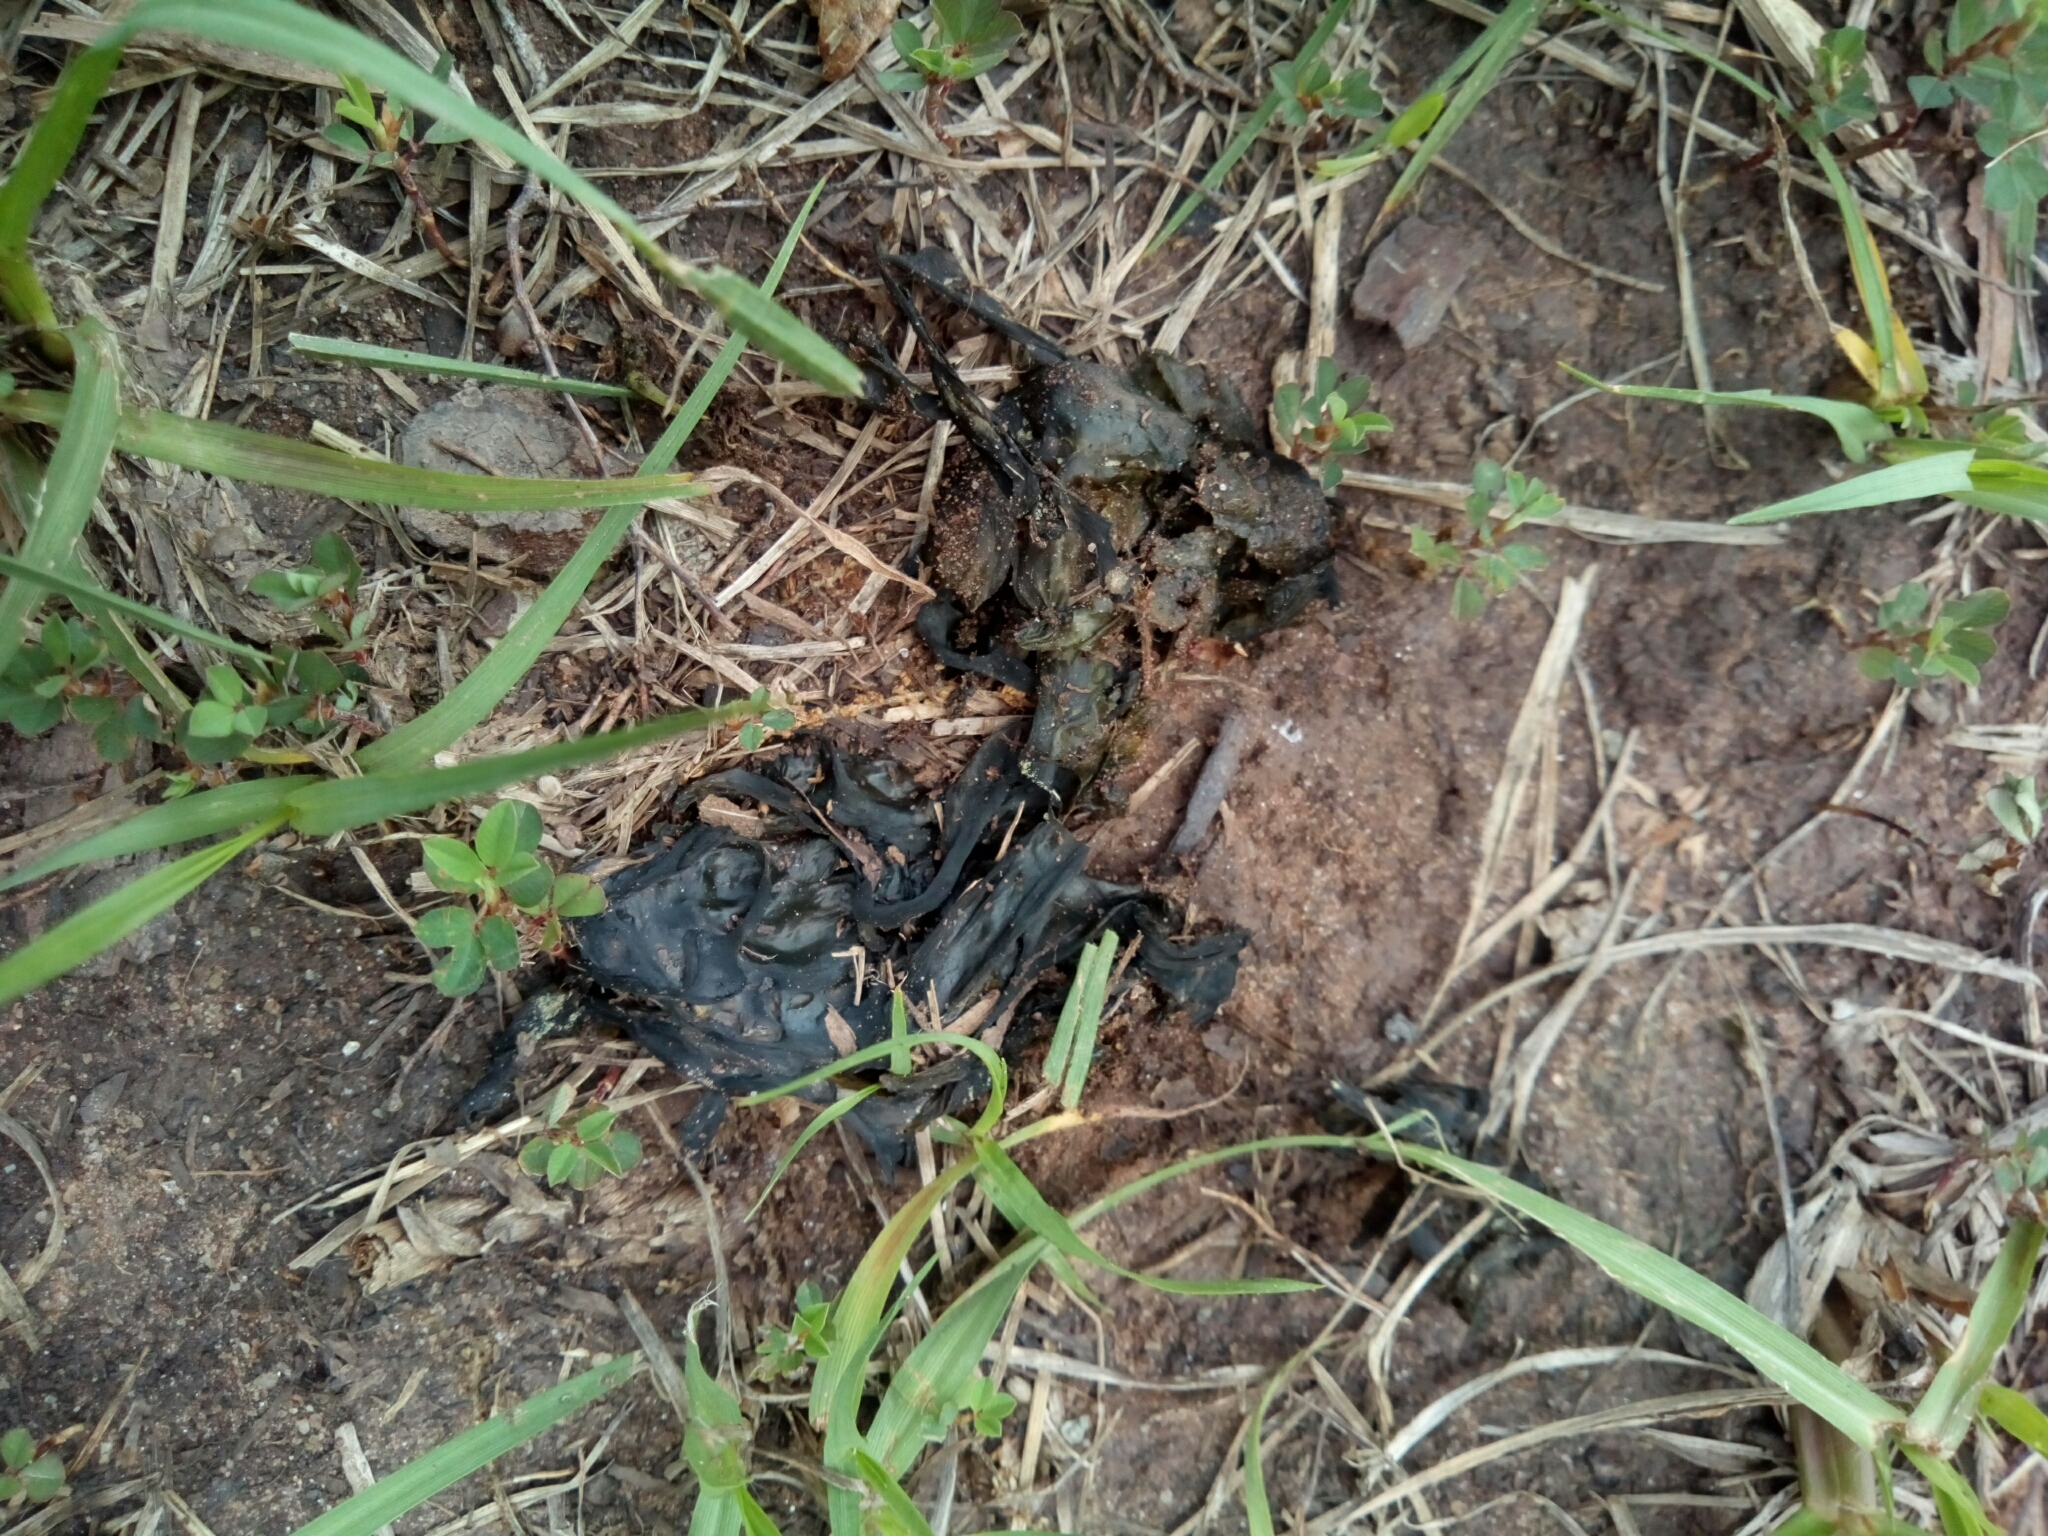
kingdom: Bacteria
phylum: Cyanobacteria
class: Cyanobacteriia
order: Cyanobacteriales
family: Nostocaceae
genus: Nostoc
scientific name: Nostoc commune
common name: Star jelly
